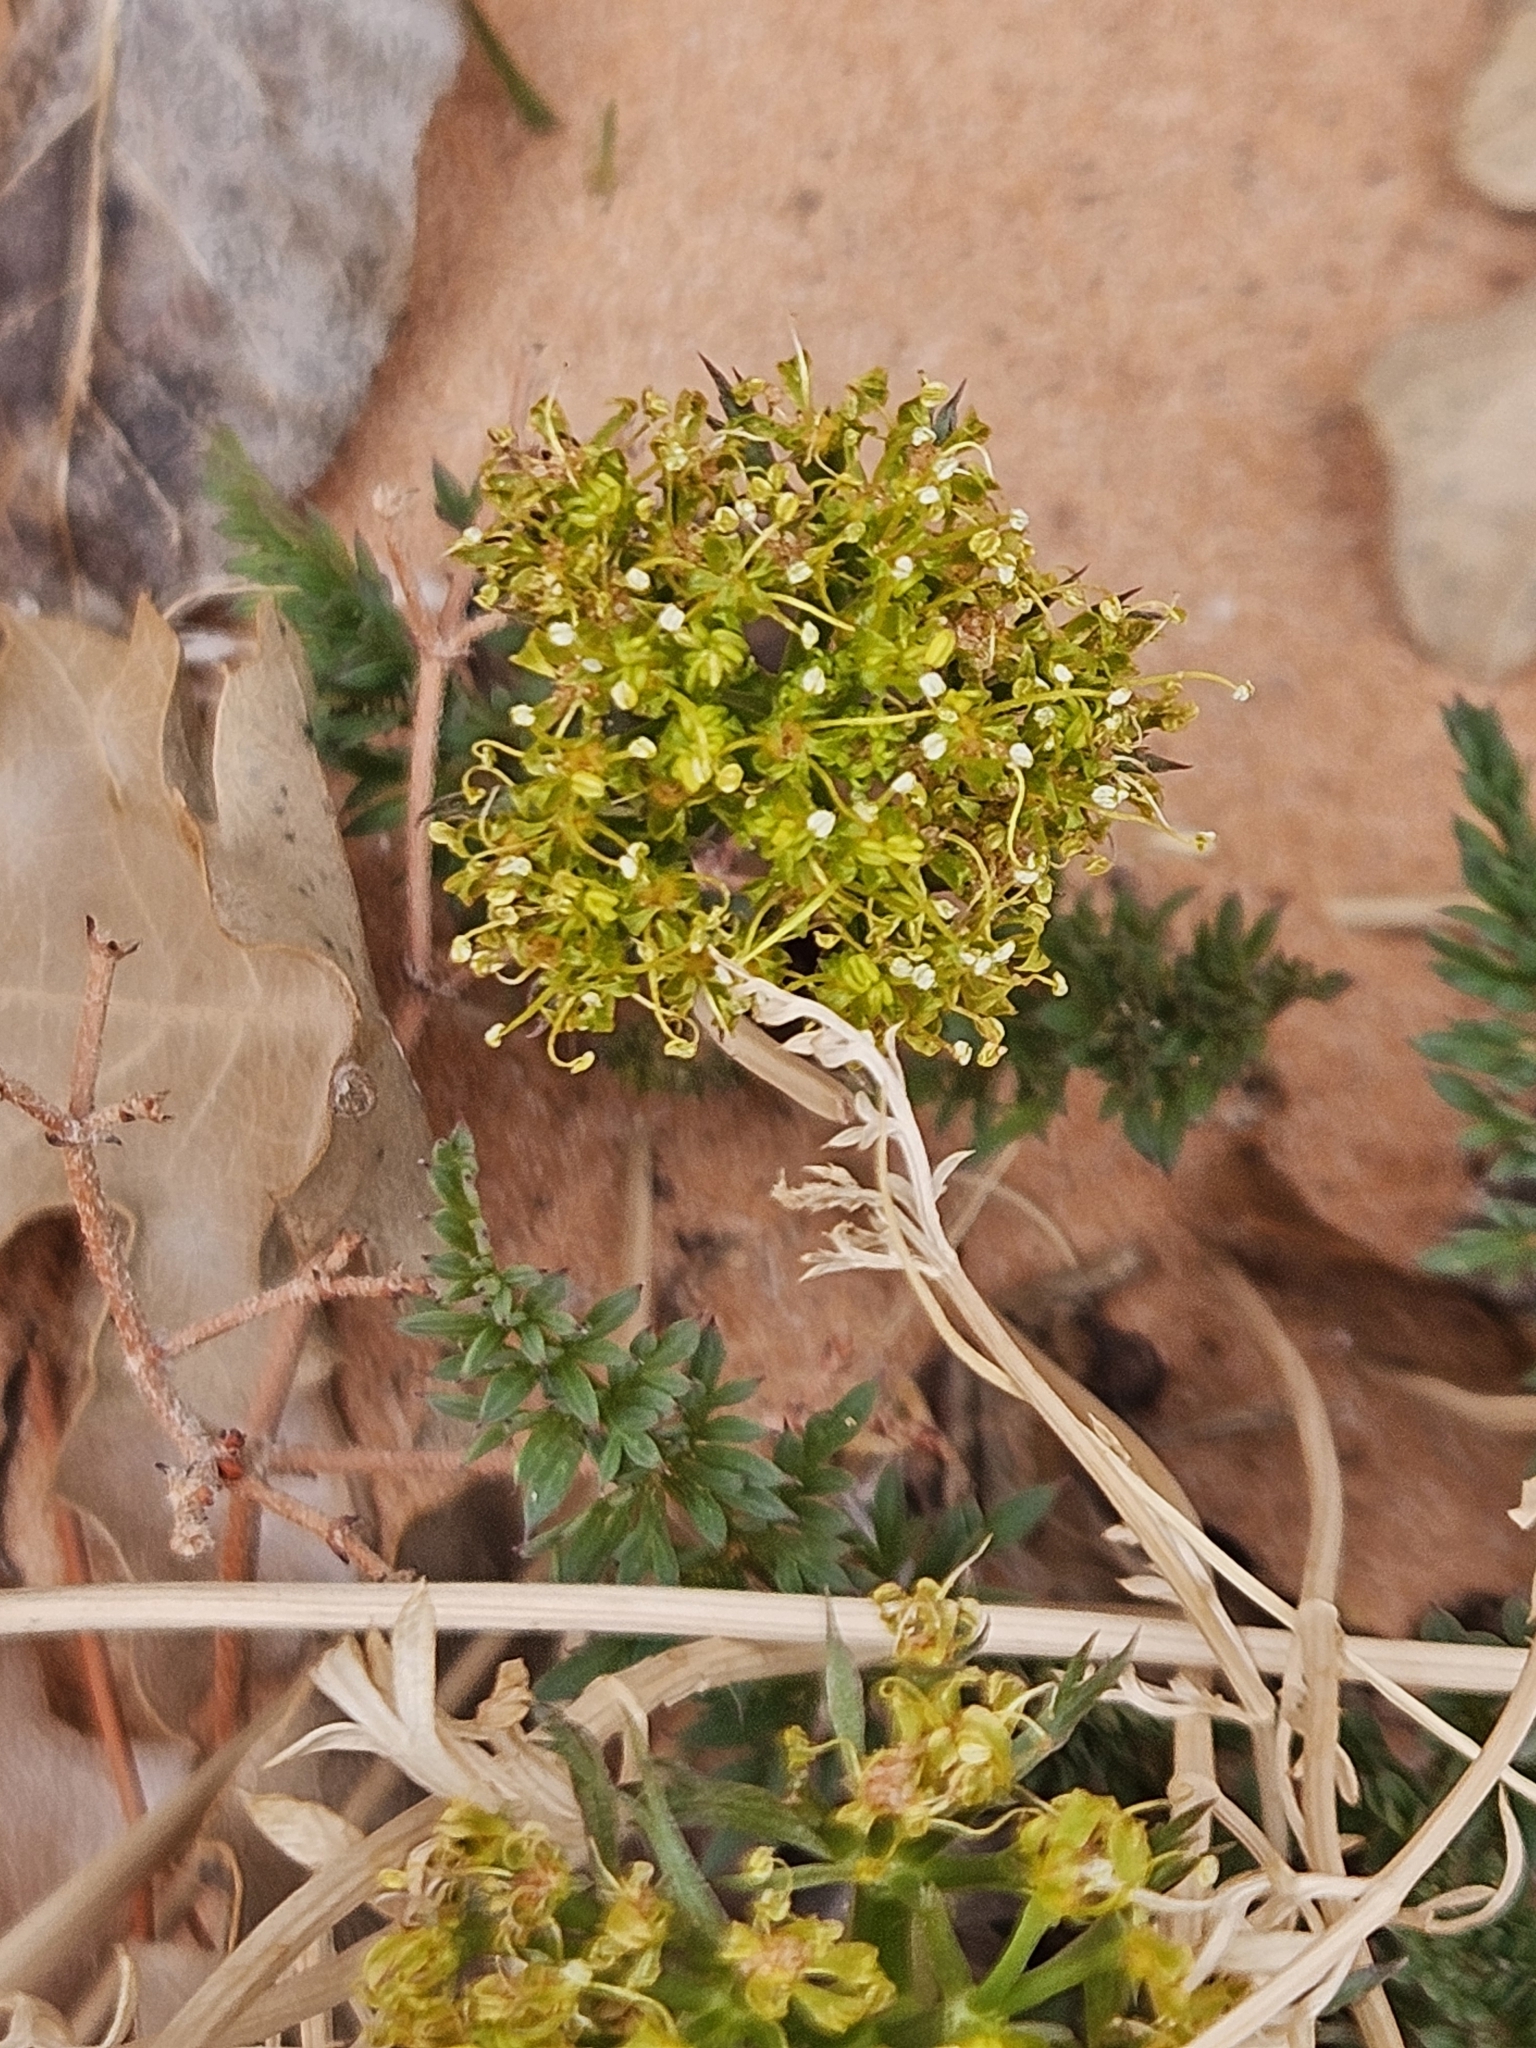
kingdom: Plantae
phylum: Tracheophyta
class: Magnoliopsida
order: Apiales
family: Apiaceae
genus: Lomatium
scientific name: Lomatium parryi
